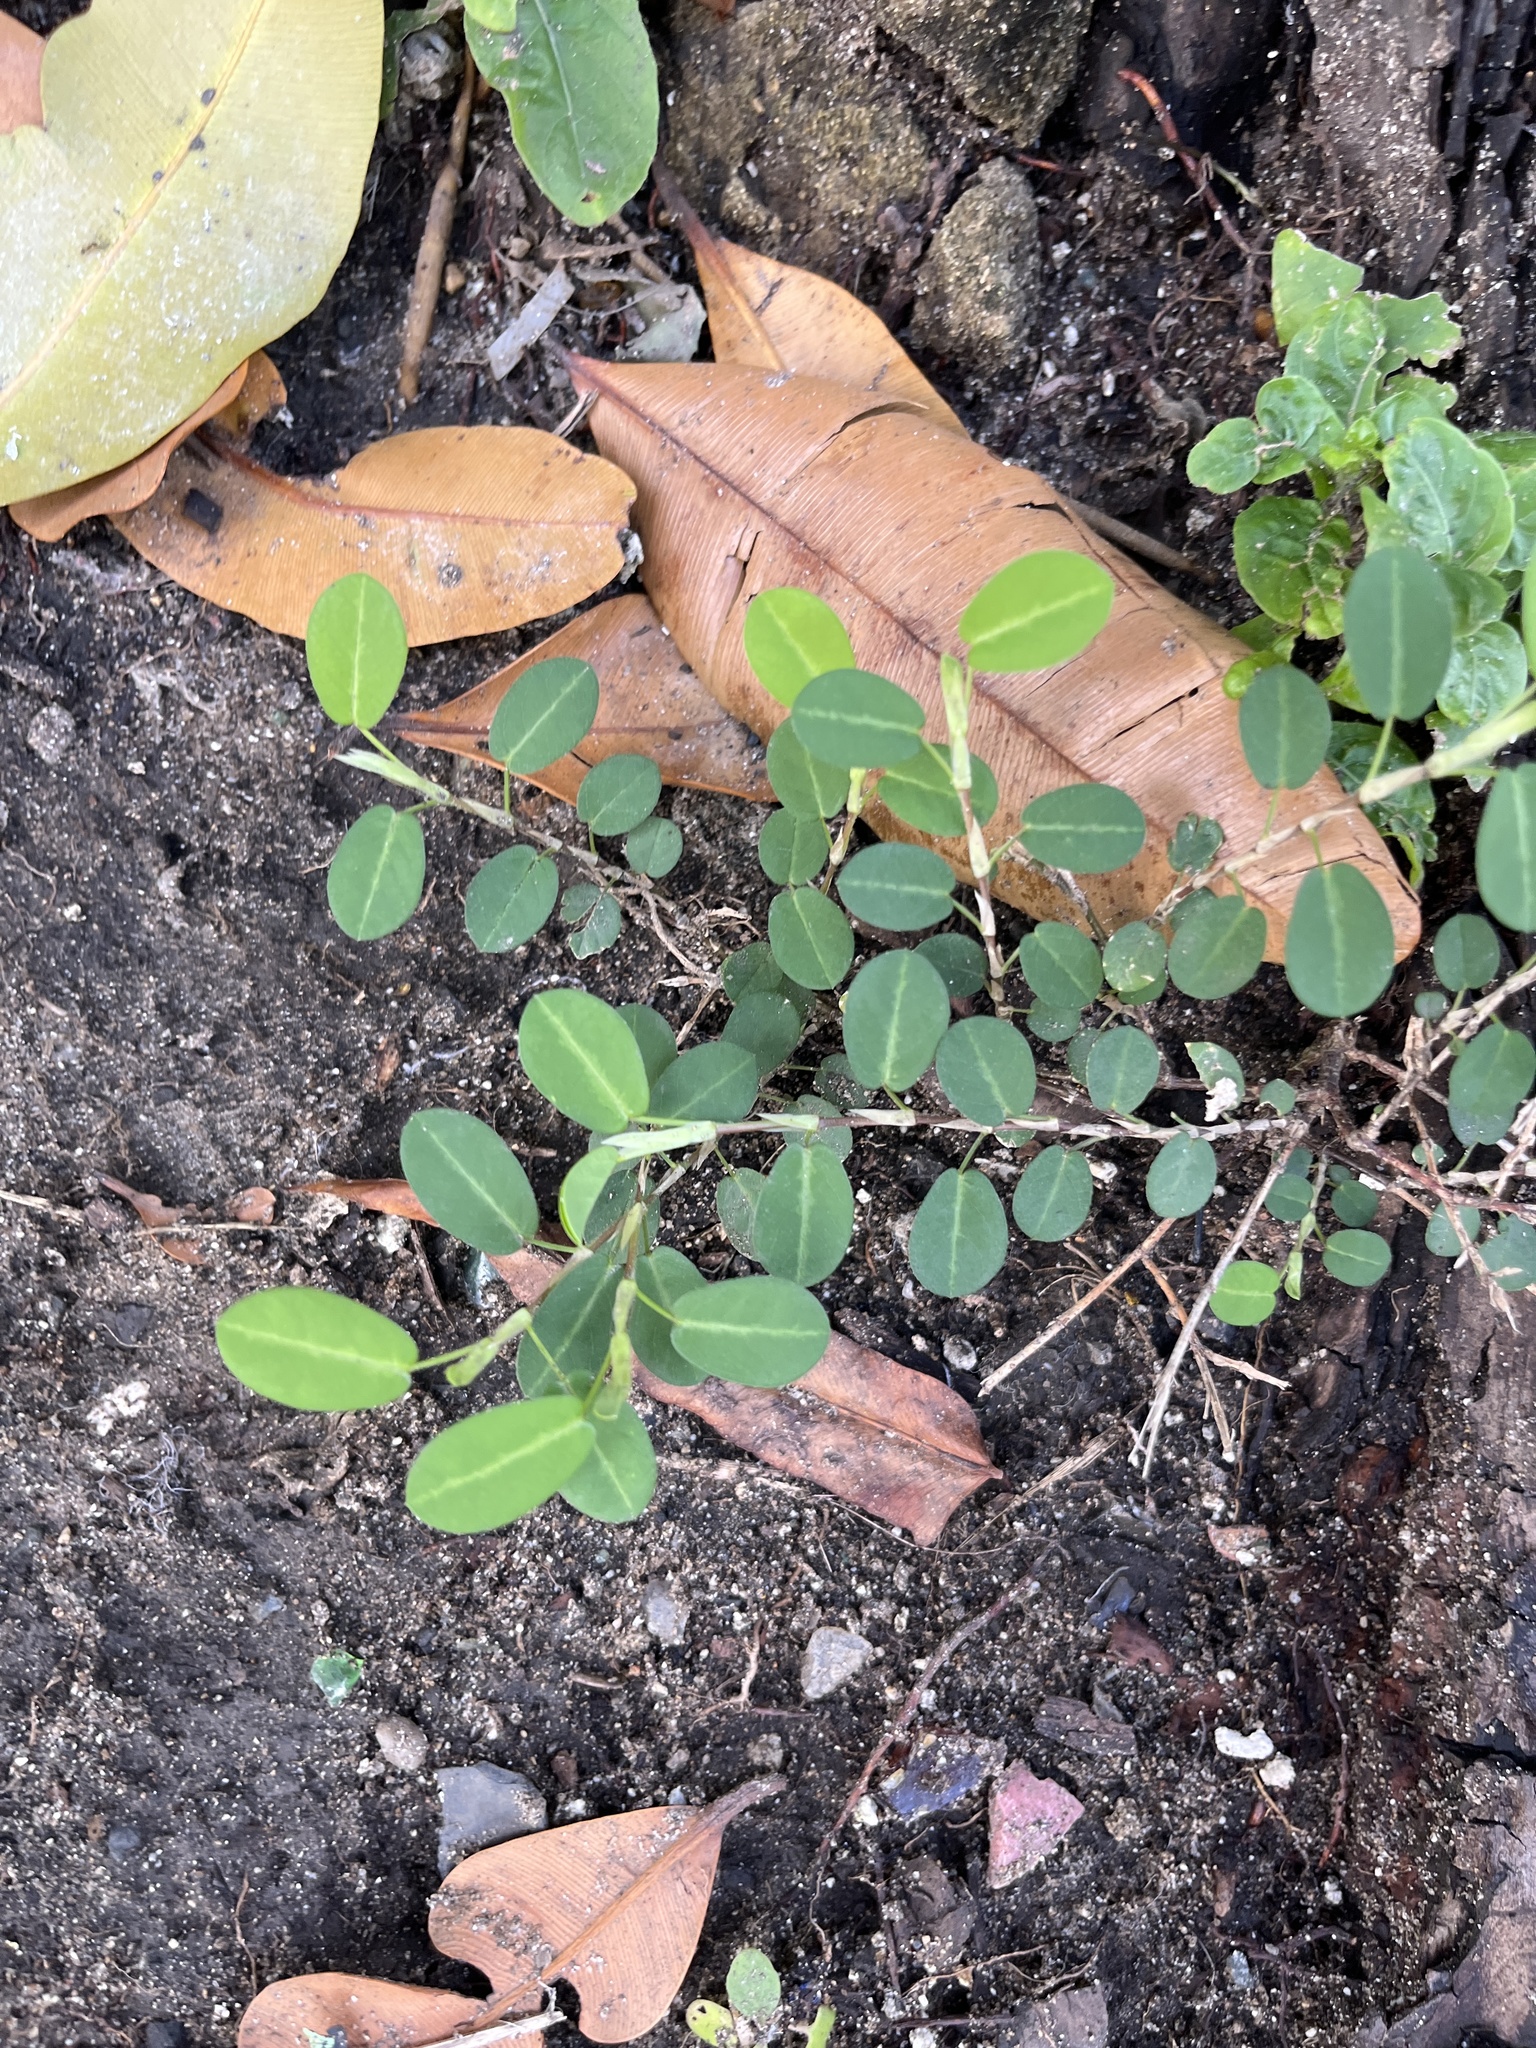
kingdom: Plantae
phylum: Tracheophyta
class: Magnoliopsida
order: Fabales
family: Fabaceae
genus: Alysicarpus
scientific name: Alysicarpus vaginalis
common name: White moneywort
